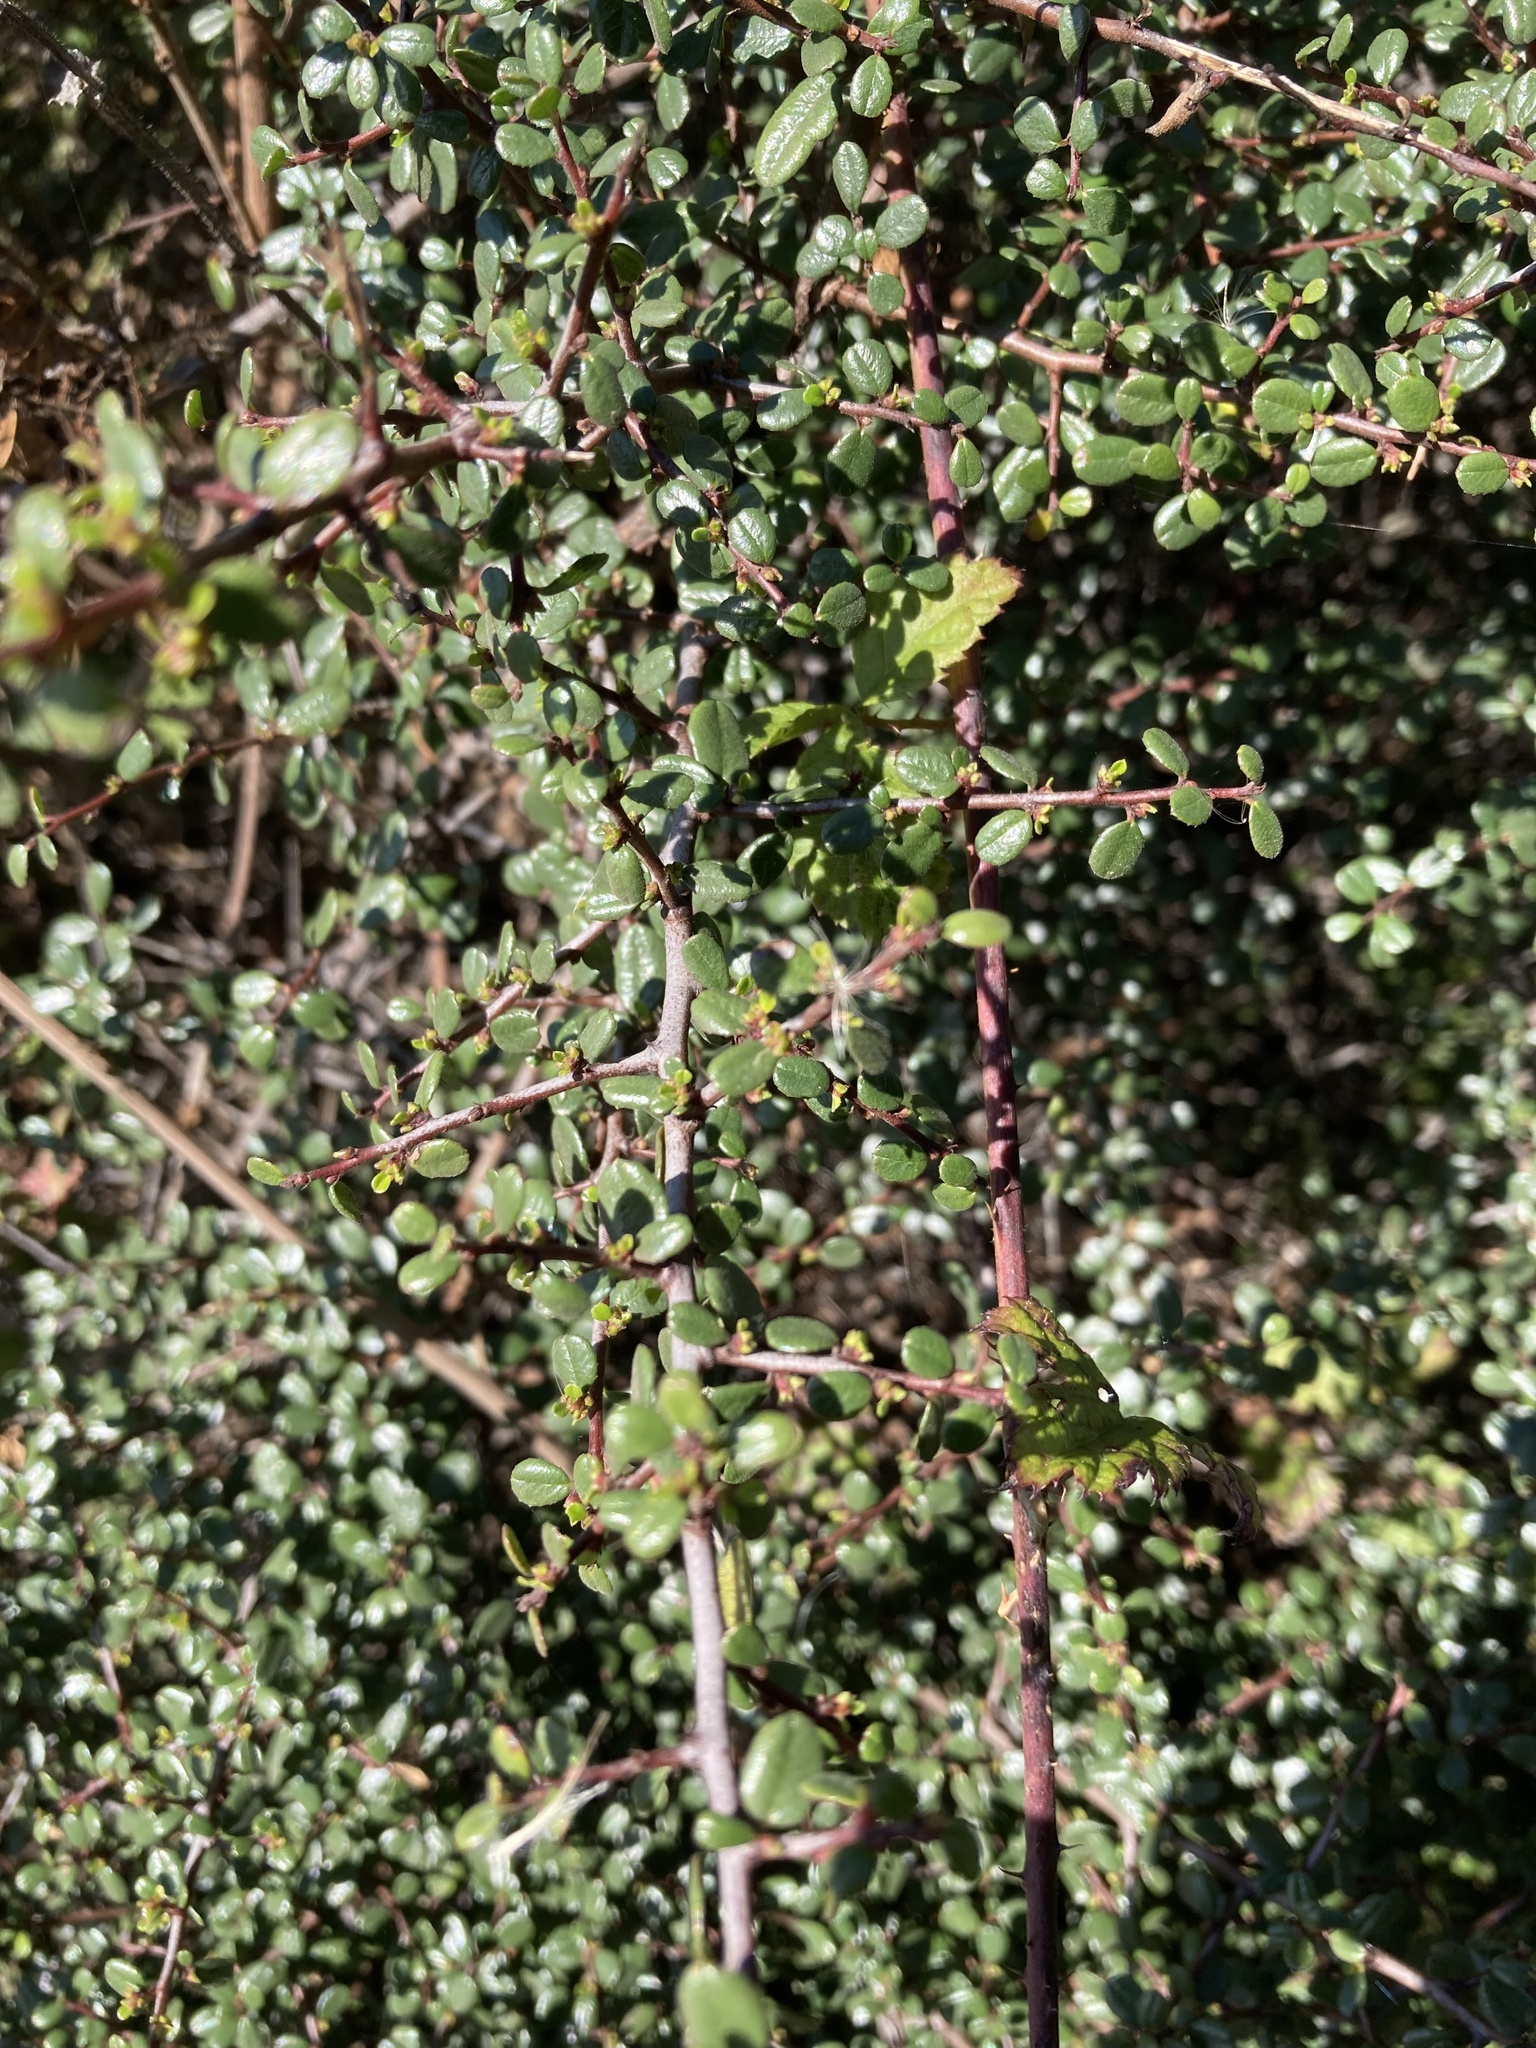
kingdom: Plantae
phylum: Tracheophyta
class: Magnoliopsida
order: Rosales
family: Rhamnaceae
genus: Endotropis
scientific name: Endotropis crocea
